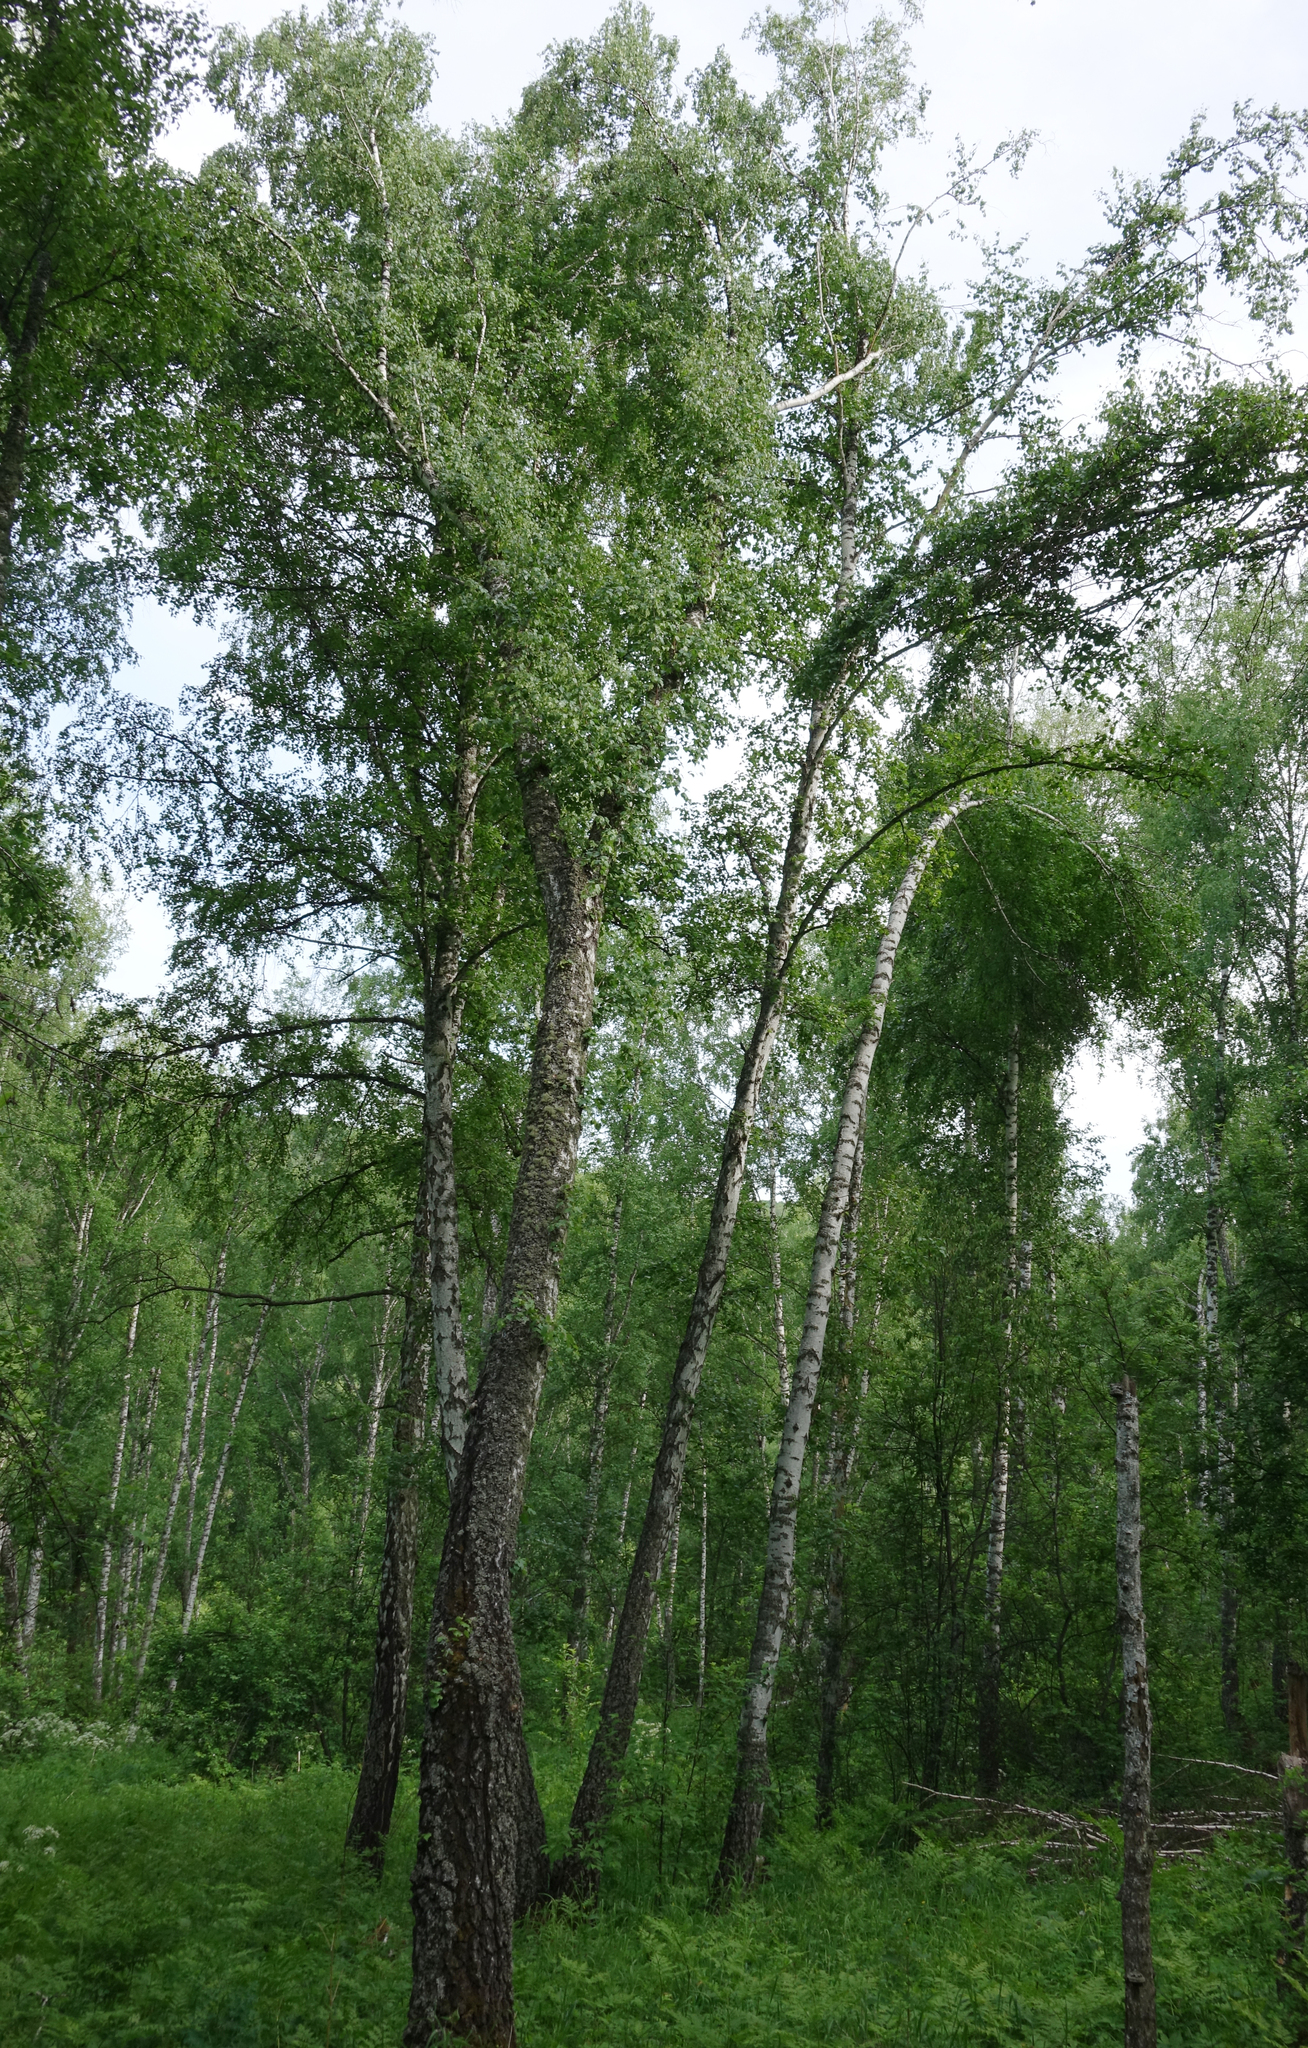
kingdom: Plantae
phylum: Tracheophyta
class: Magnoliopsida
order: Fagales
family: Betulaceae
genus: Betula
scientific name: Betula pendula
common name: Silver birch
